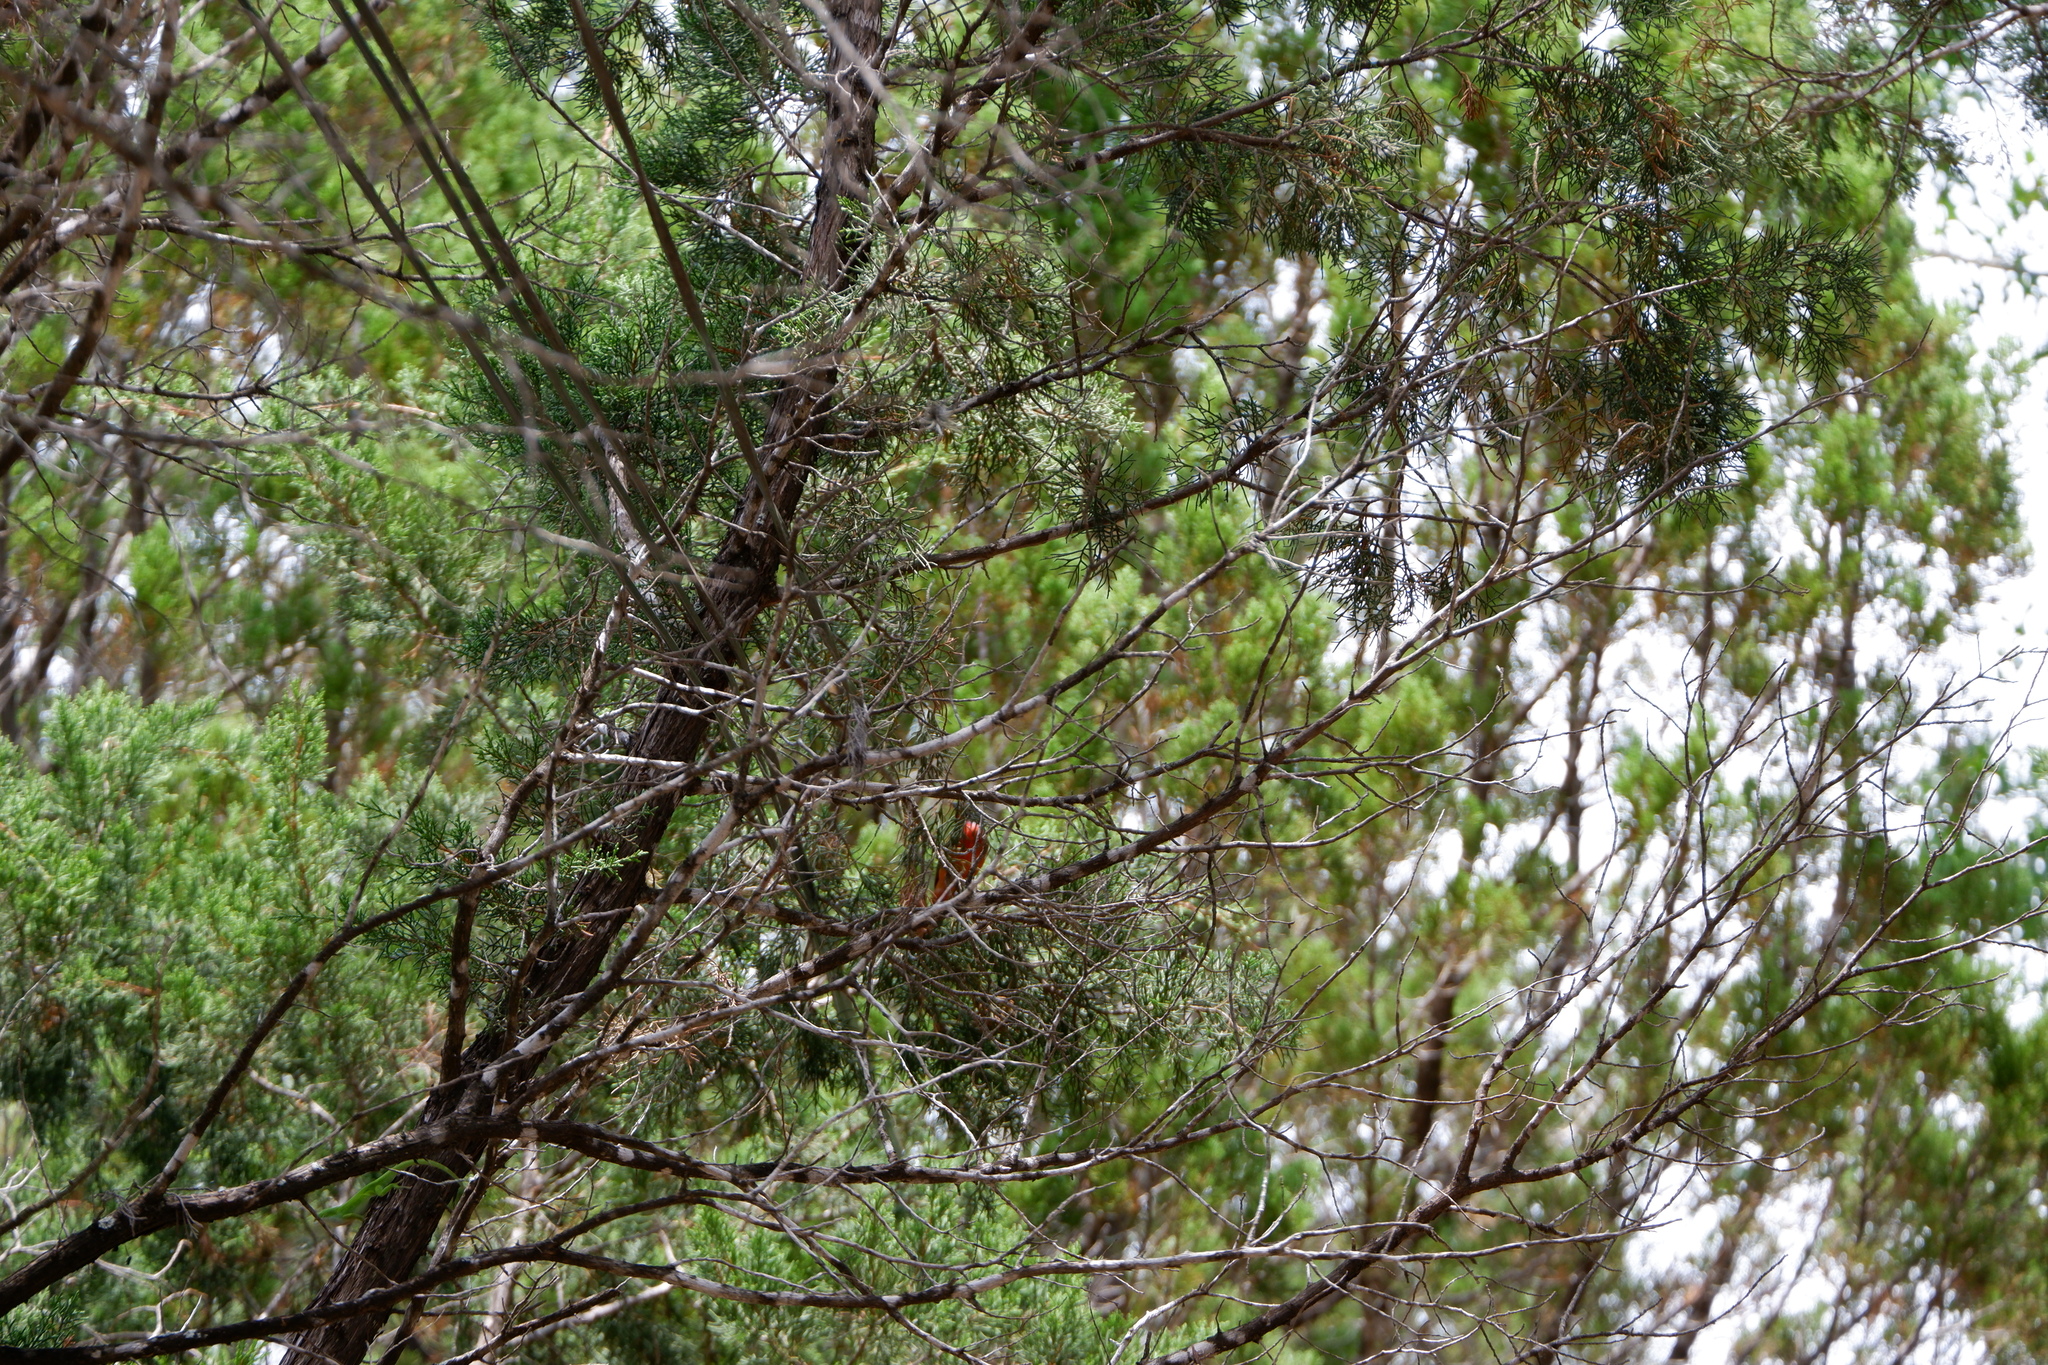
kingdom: Animalia
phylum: Chordata
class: Aves
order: Passeriformes
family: Cardinalidae
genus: Passerina
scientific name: Passerina ciris
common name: Painted bunting
